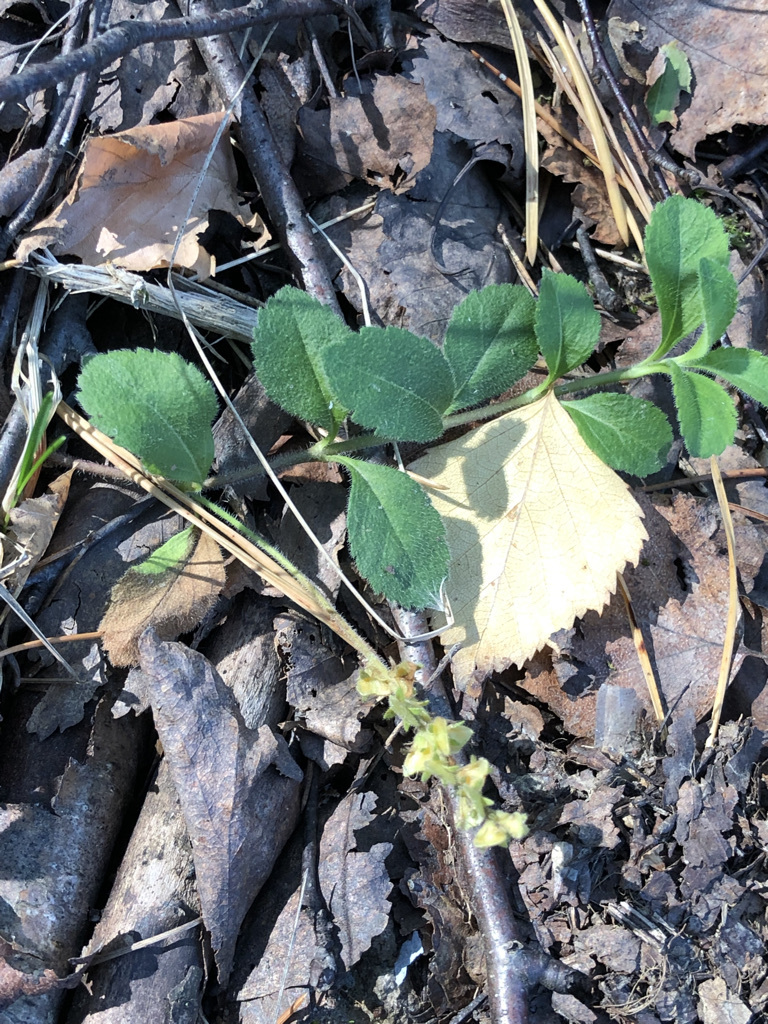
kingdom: Plantae
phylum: Tracheophyta
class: Magnoliopsida
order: Lamiales
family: Plantaginaceae
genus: Veronica
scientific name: Veronica officinalis
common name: Common speedwell
